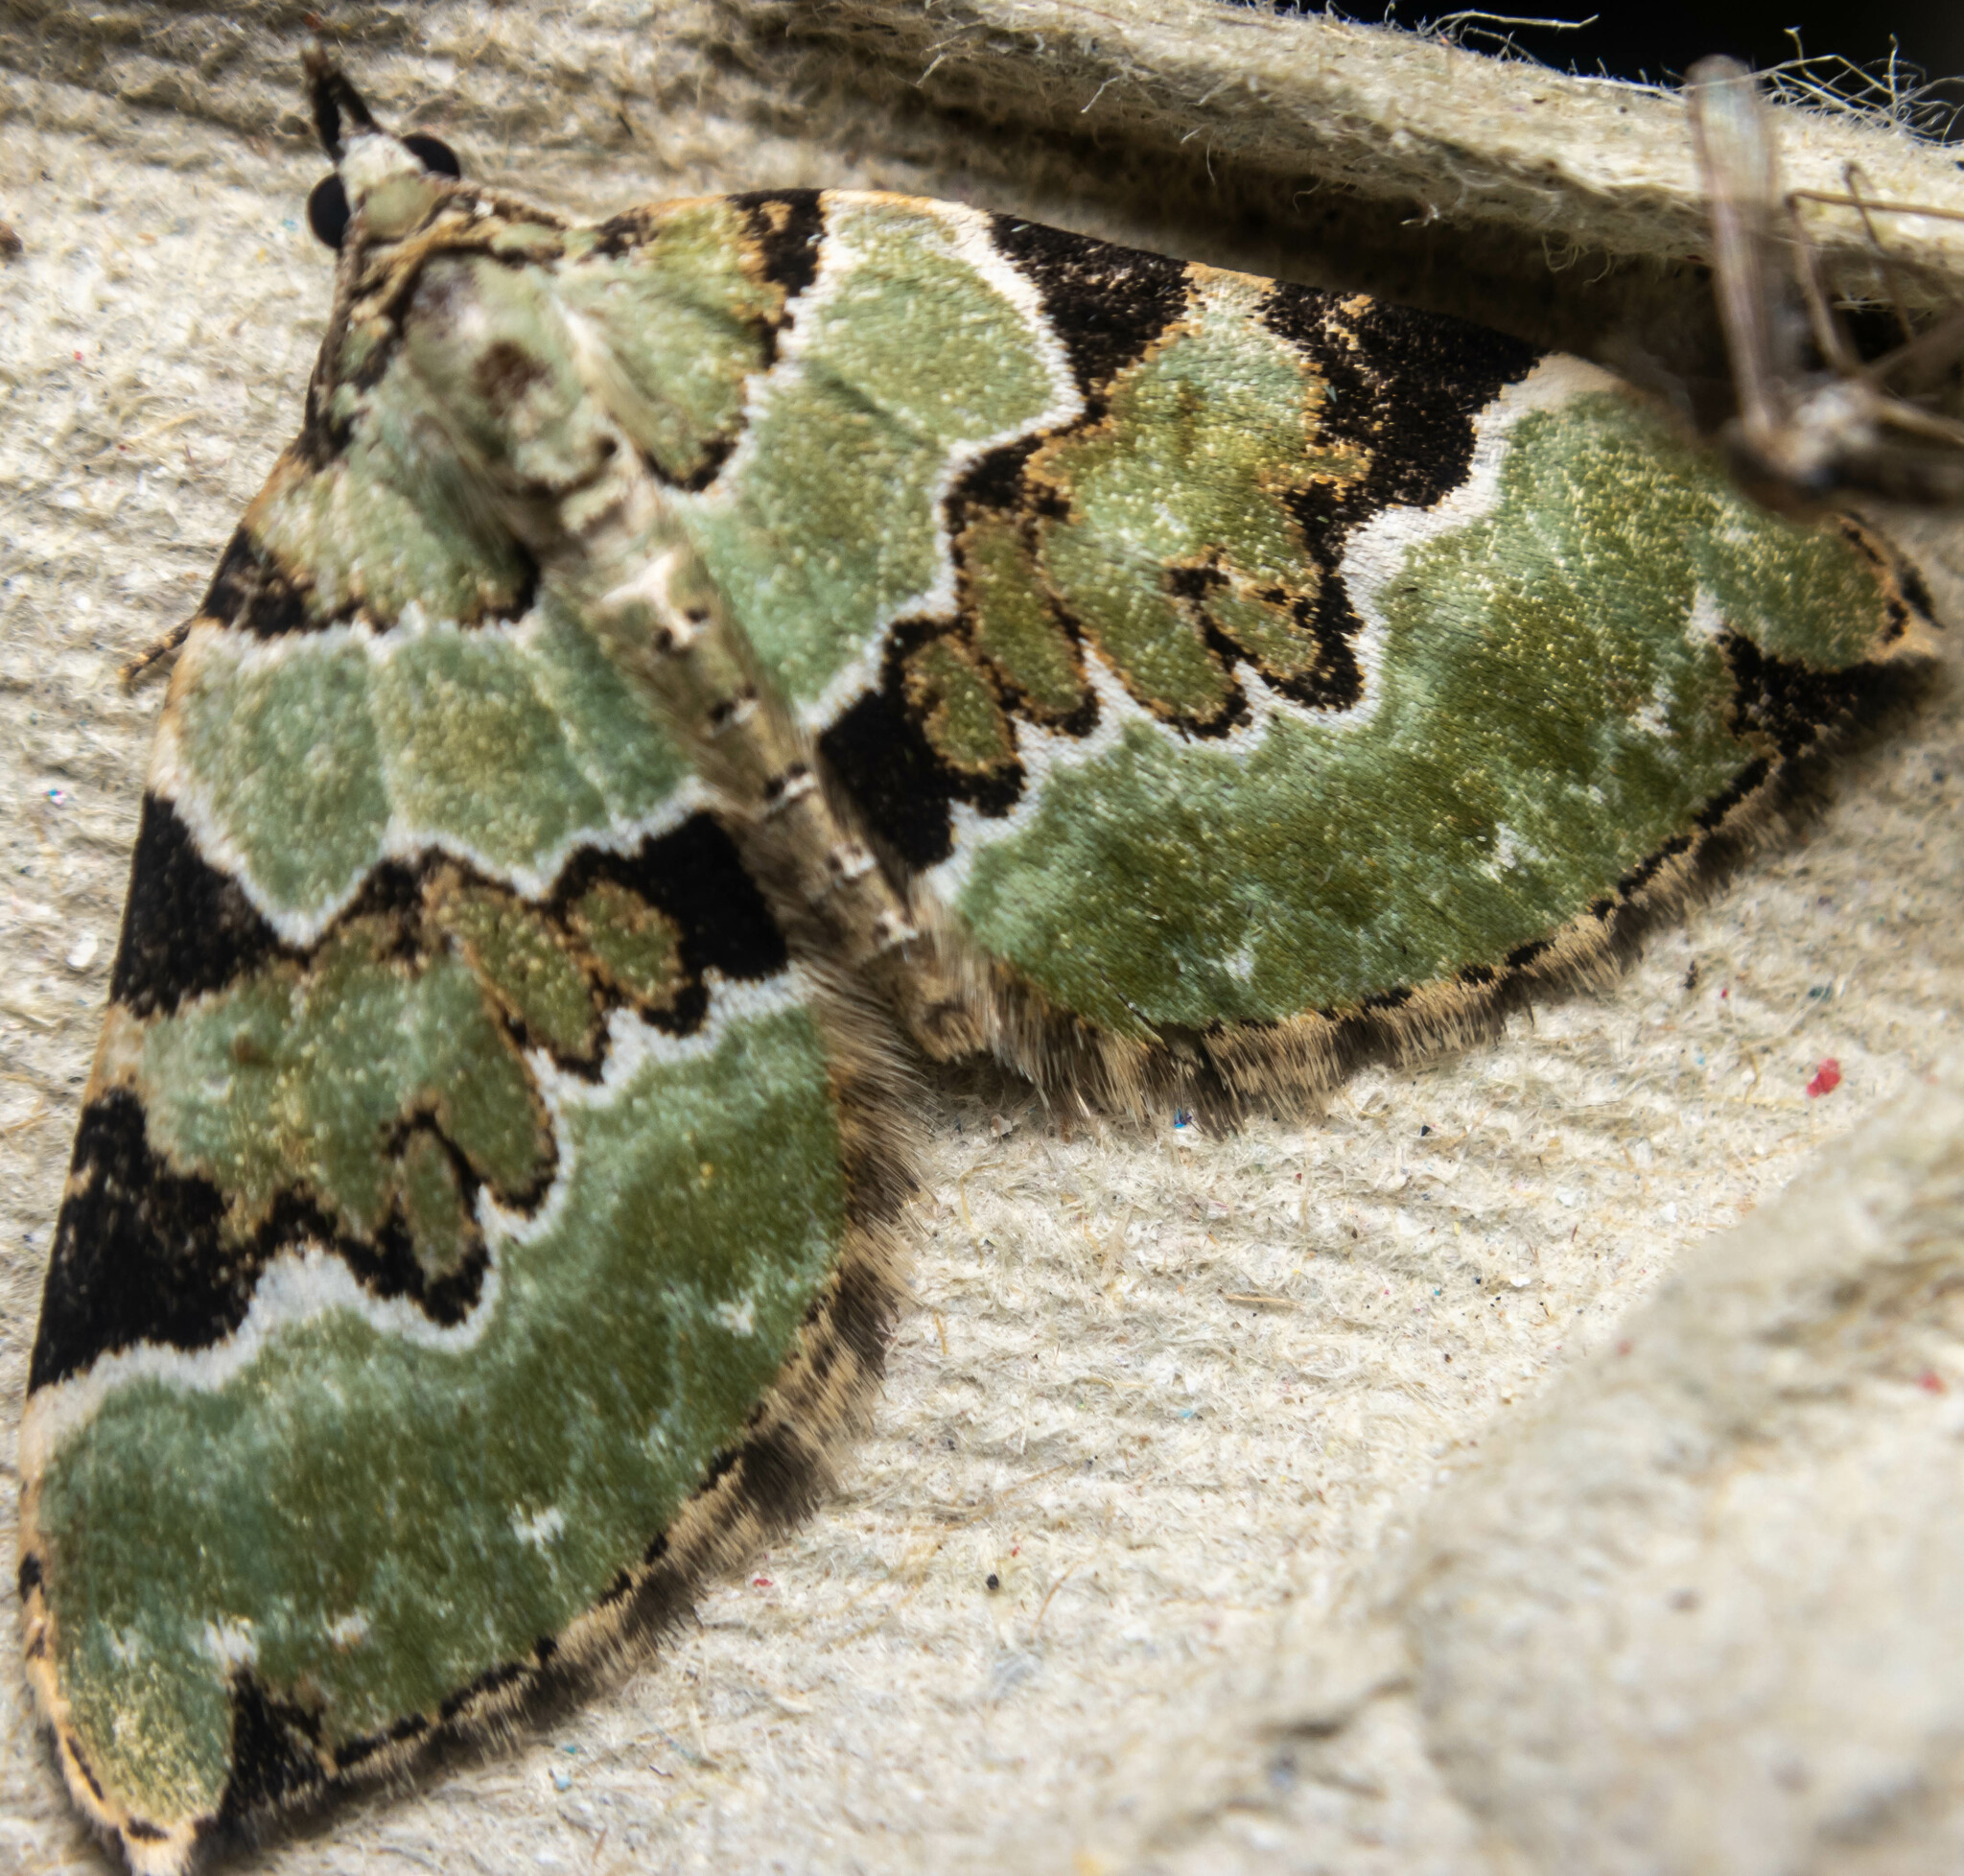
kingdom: Animalia
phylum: Arthropoda
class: Insecta
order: Lepidoptera
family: Geometridae
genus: Colostygia
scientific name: Colostygia pectinataria
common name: Green carpet
